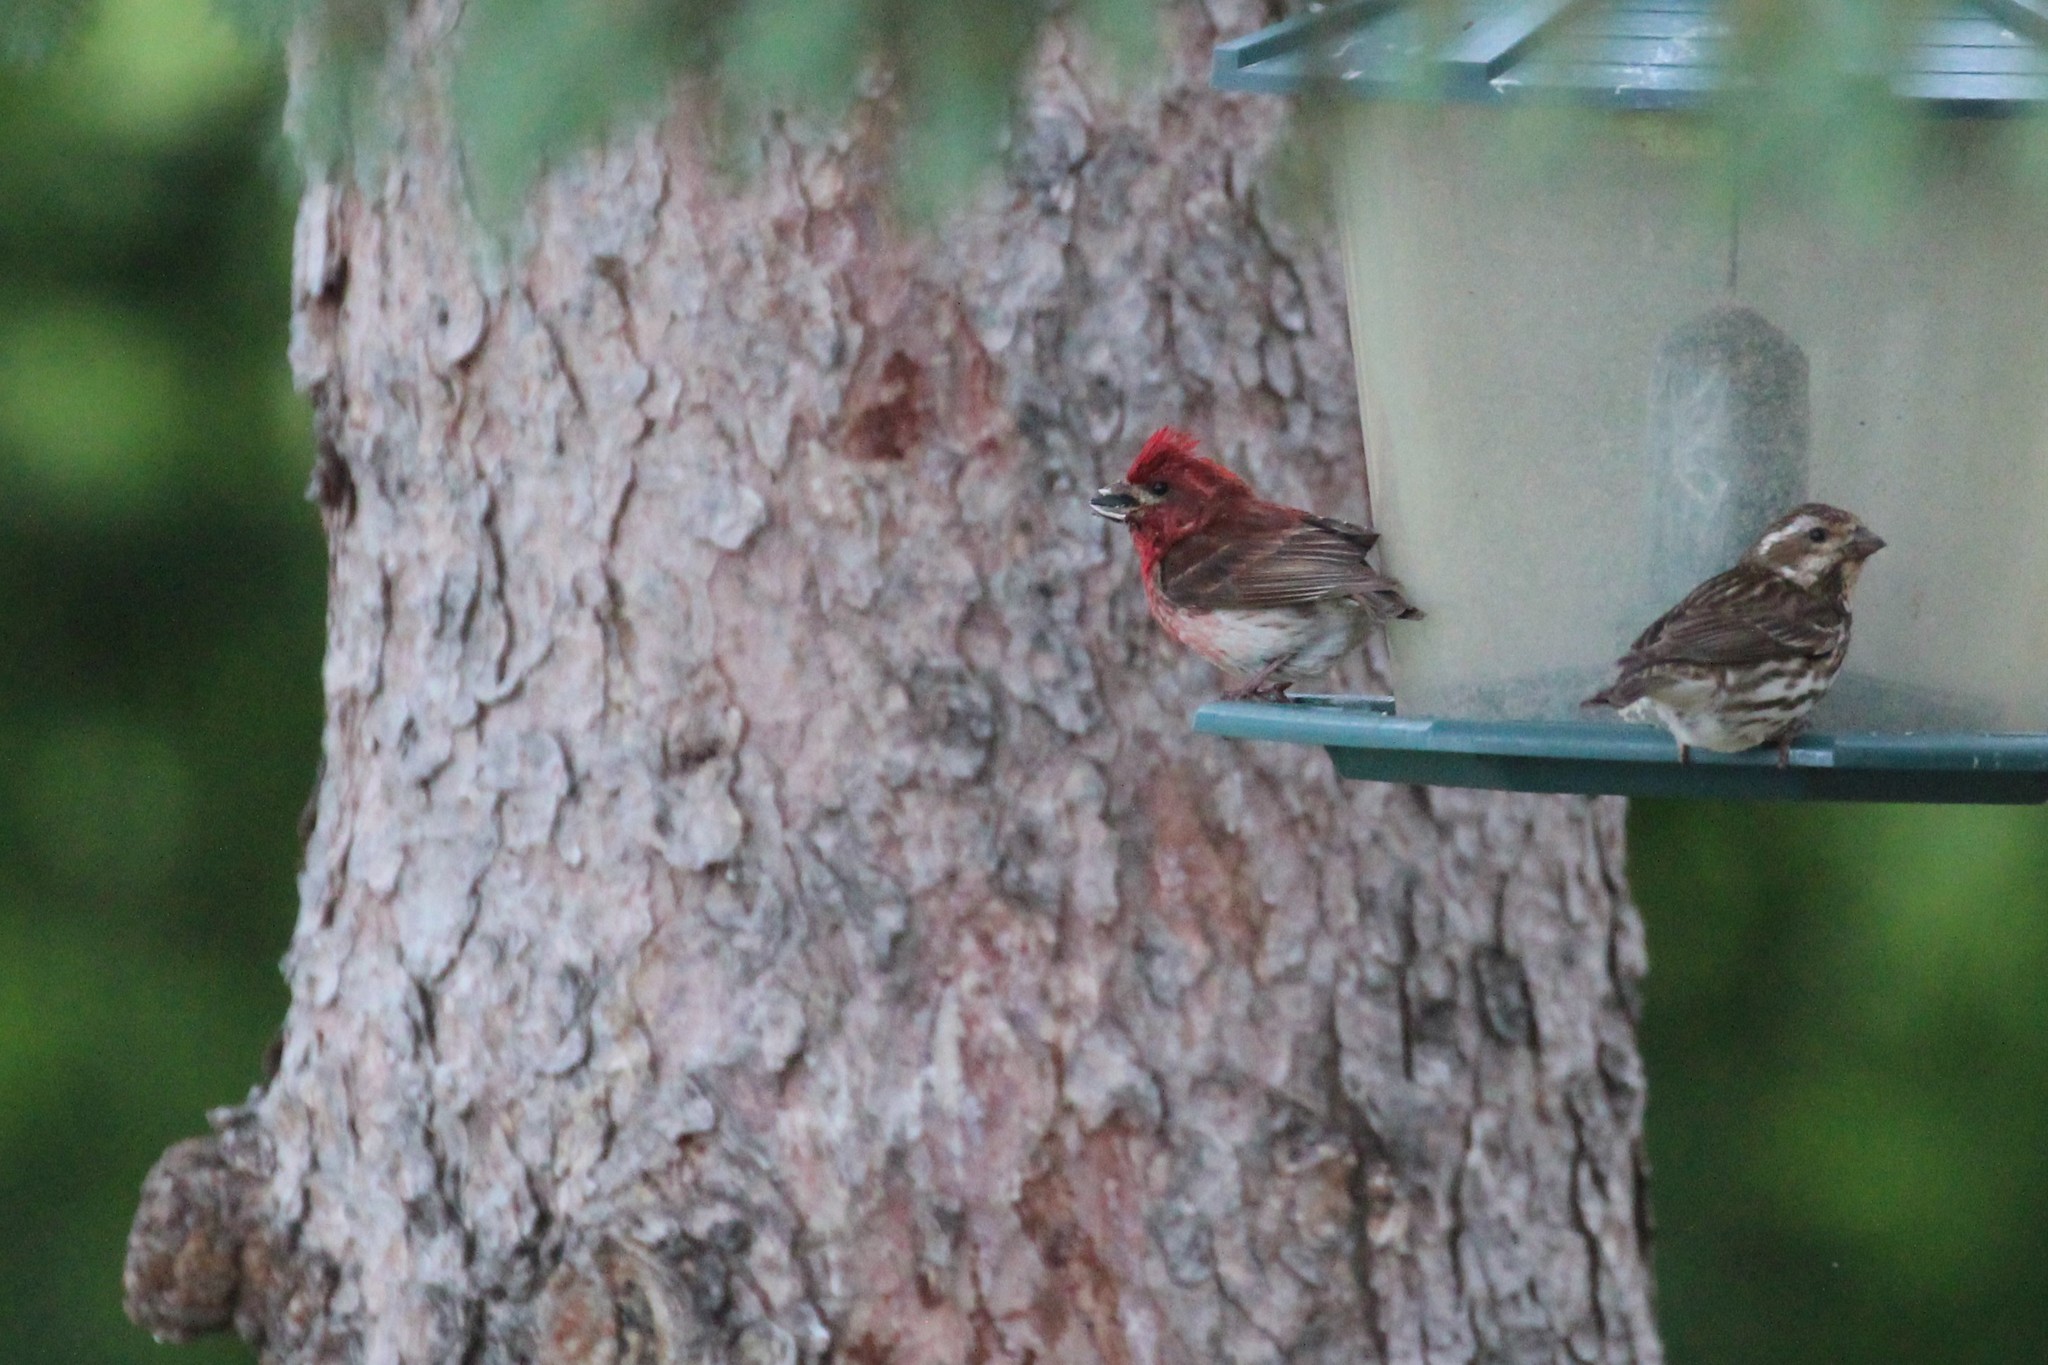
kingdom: Animalia
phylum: Chordata
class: Aves
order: Passeriformes
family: Fringillidae
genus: Haemorhous
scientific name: Haemorhous purpureus
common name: Purple finch
